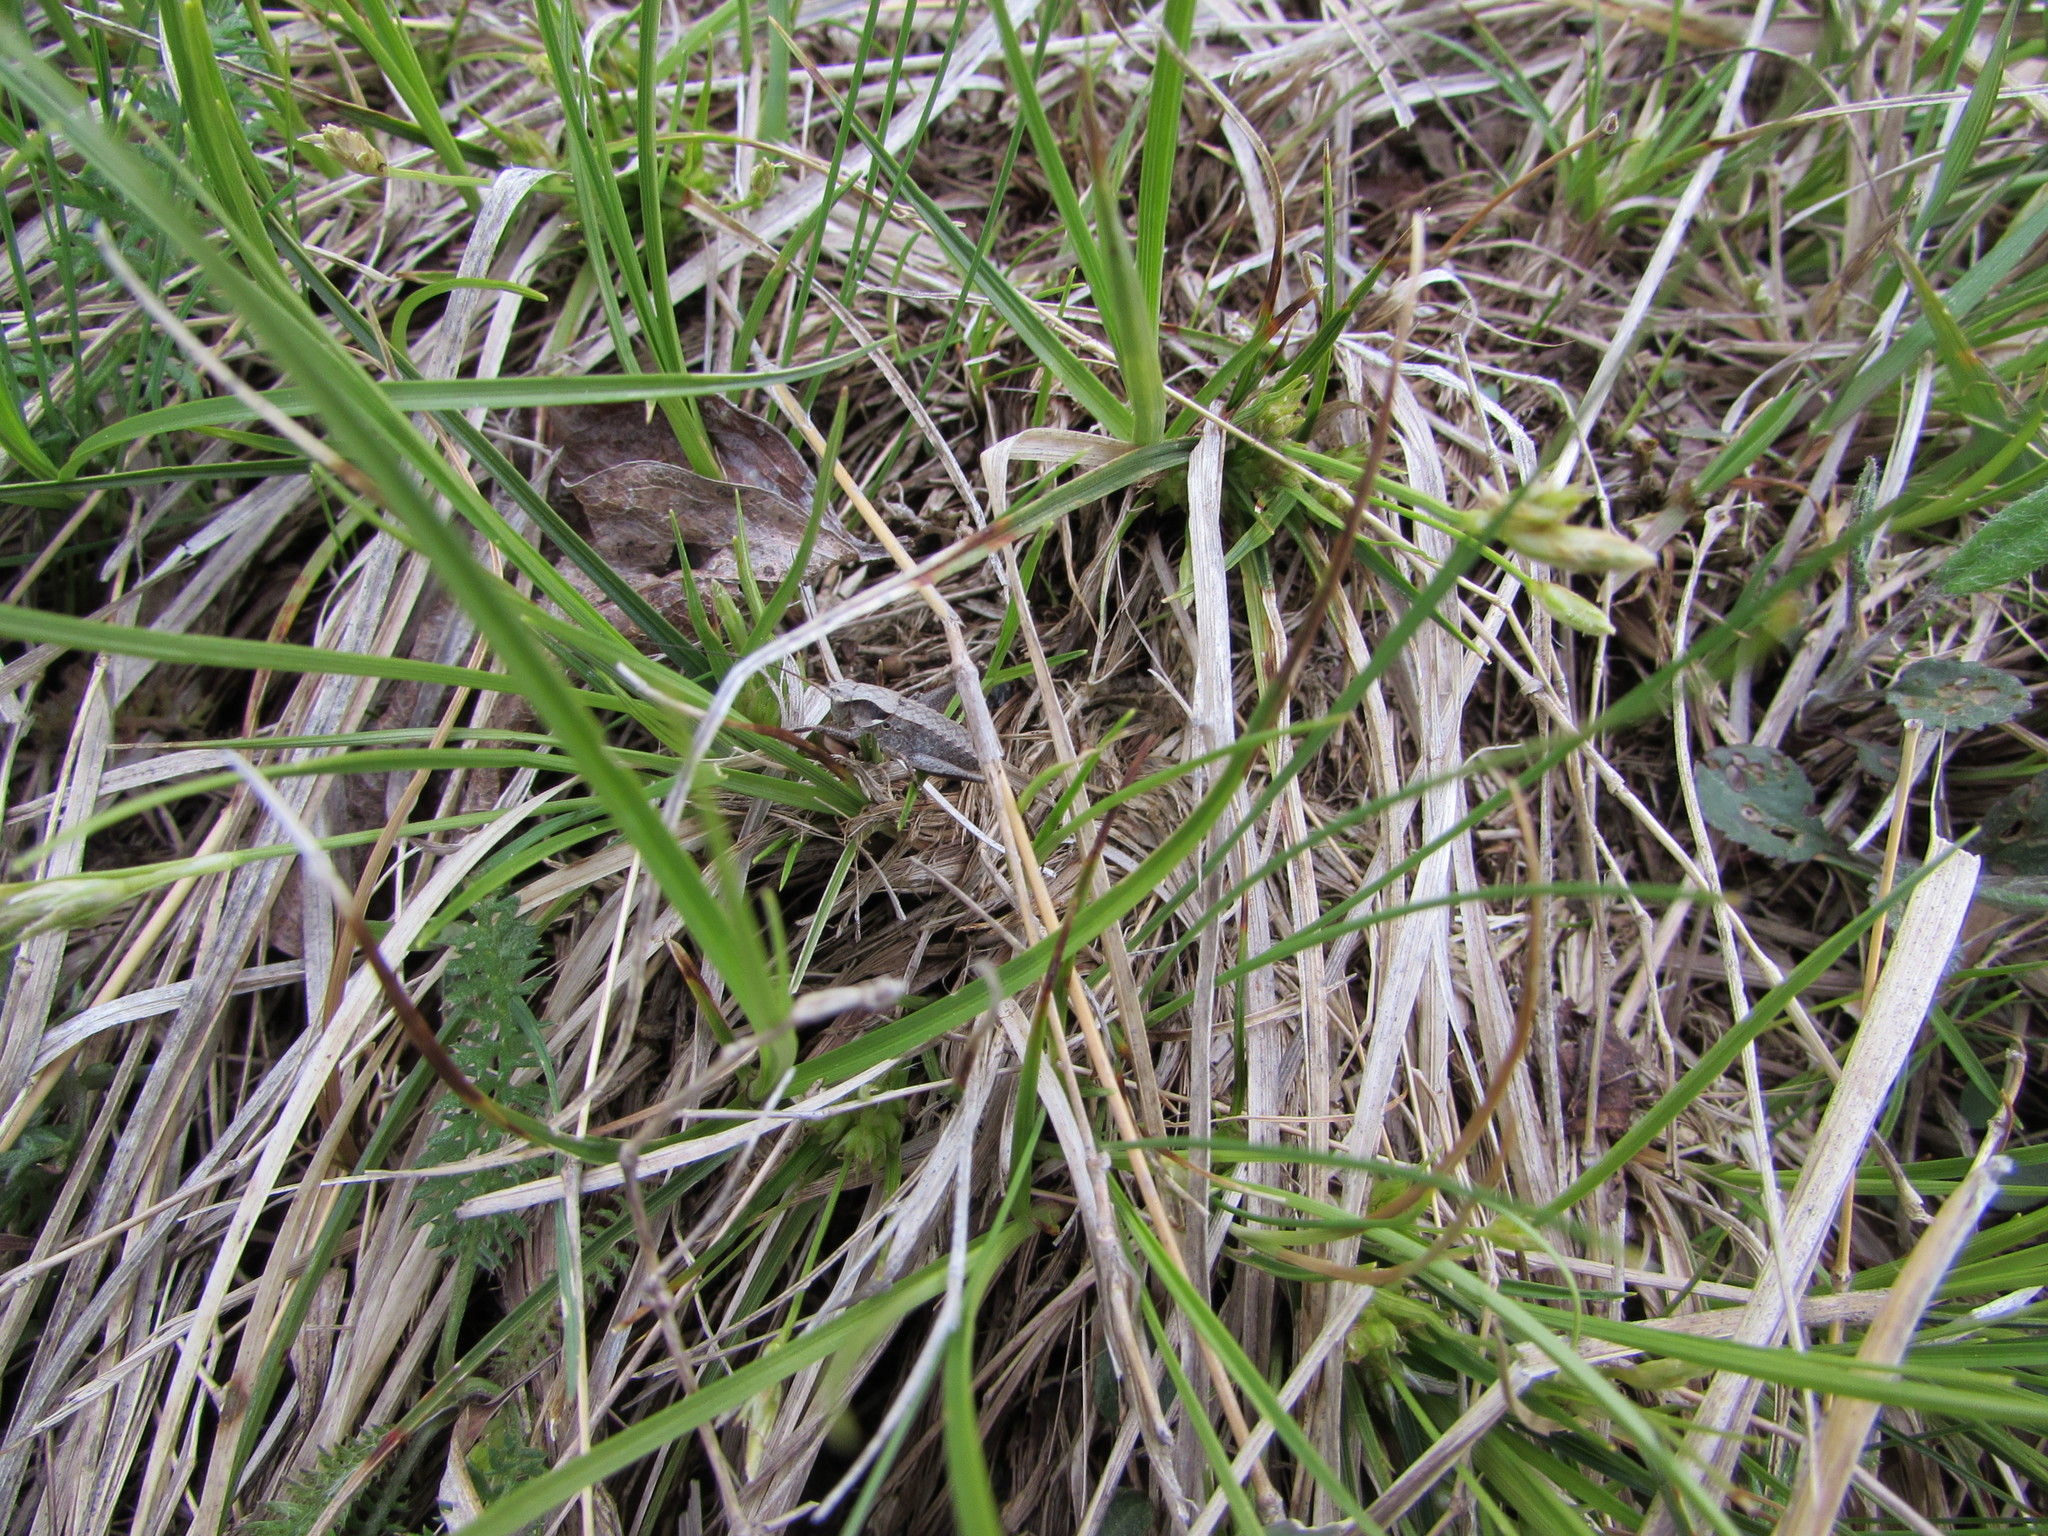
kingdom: Animalia
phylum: Arthropoda
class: Insecta
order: Orthoptera
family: Tettigoniidae
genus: Atlanticus
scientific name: Atlanticus
